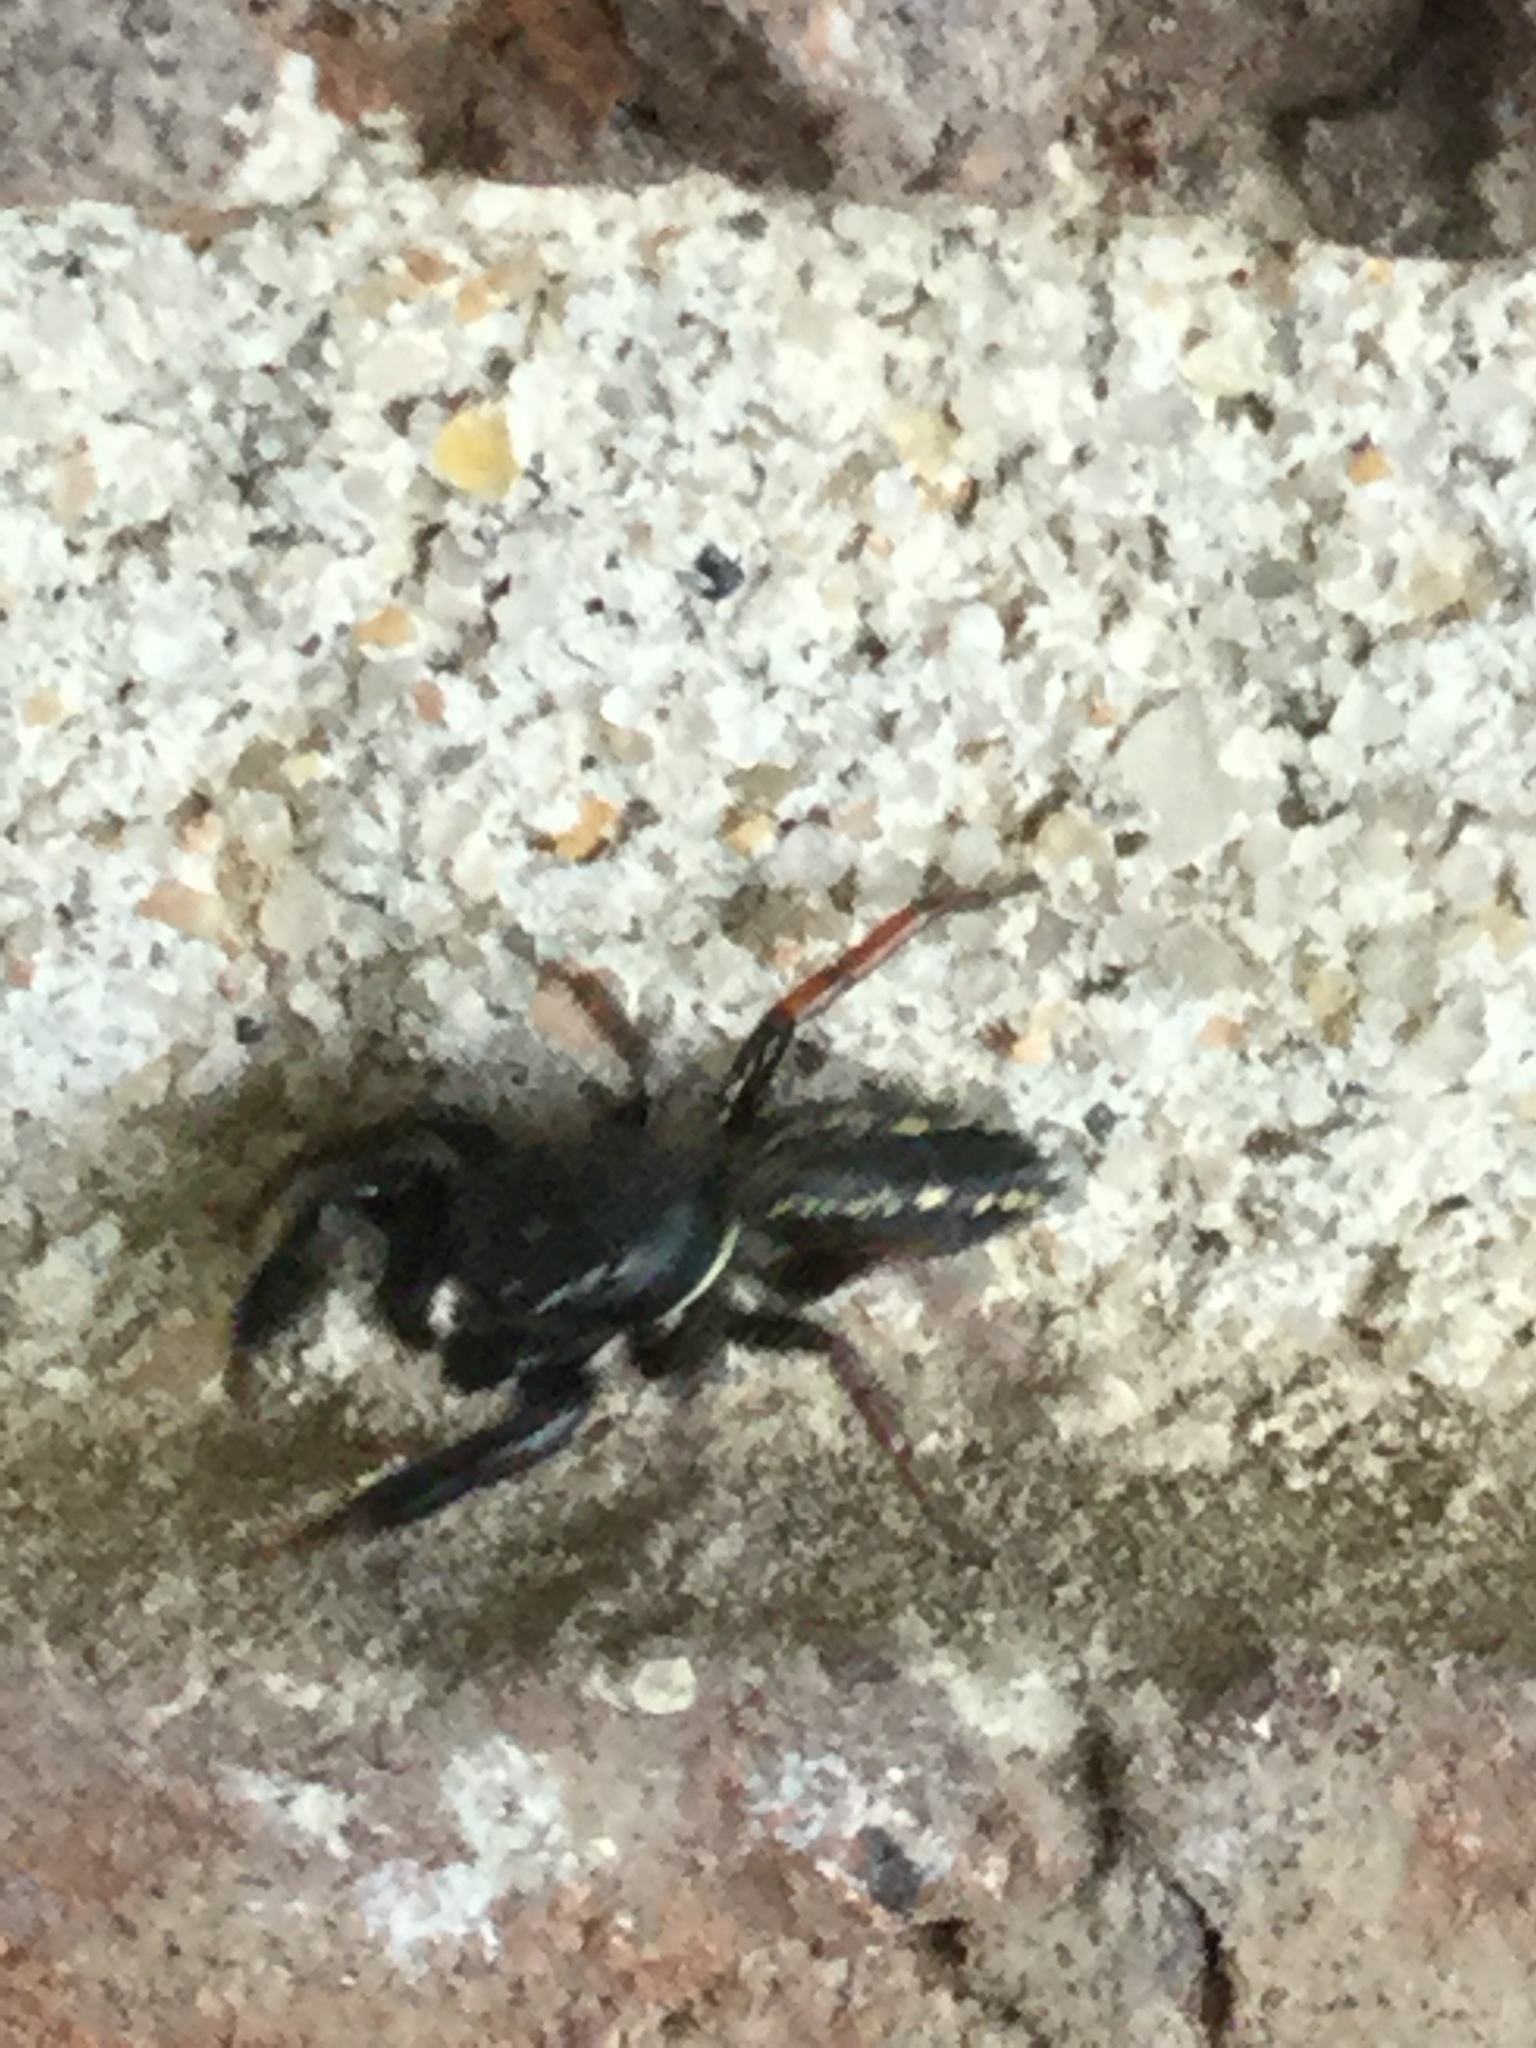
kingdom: Animalia
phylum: Arthropoda
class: Arachnida
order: Araneae
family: Salticidae
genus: Metacyrba
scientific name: Metacyrba taeniola
